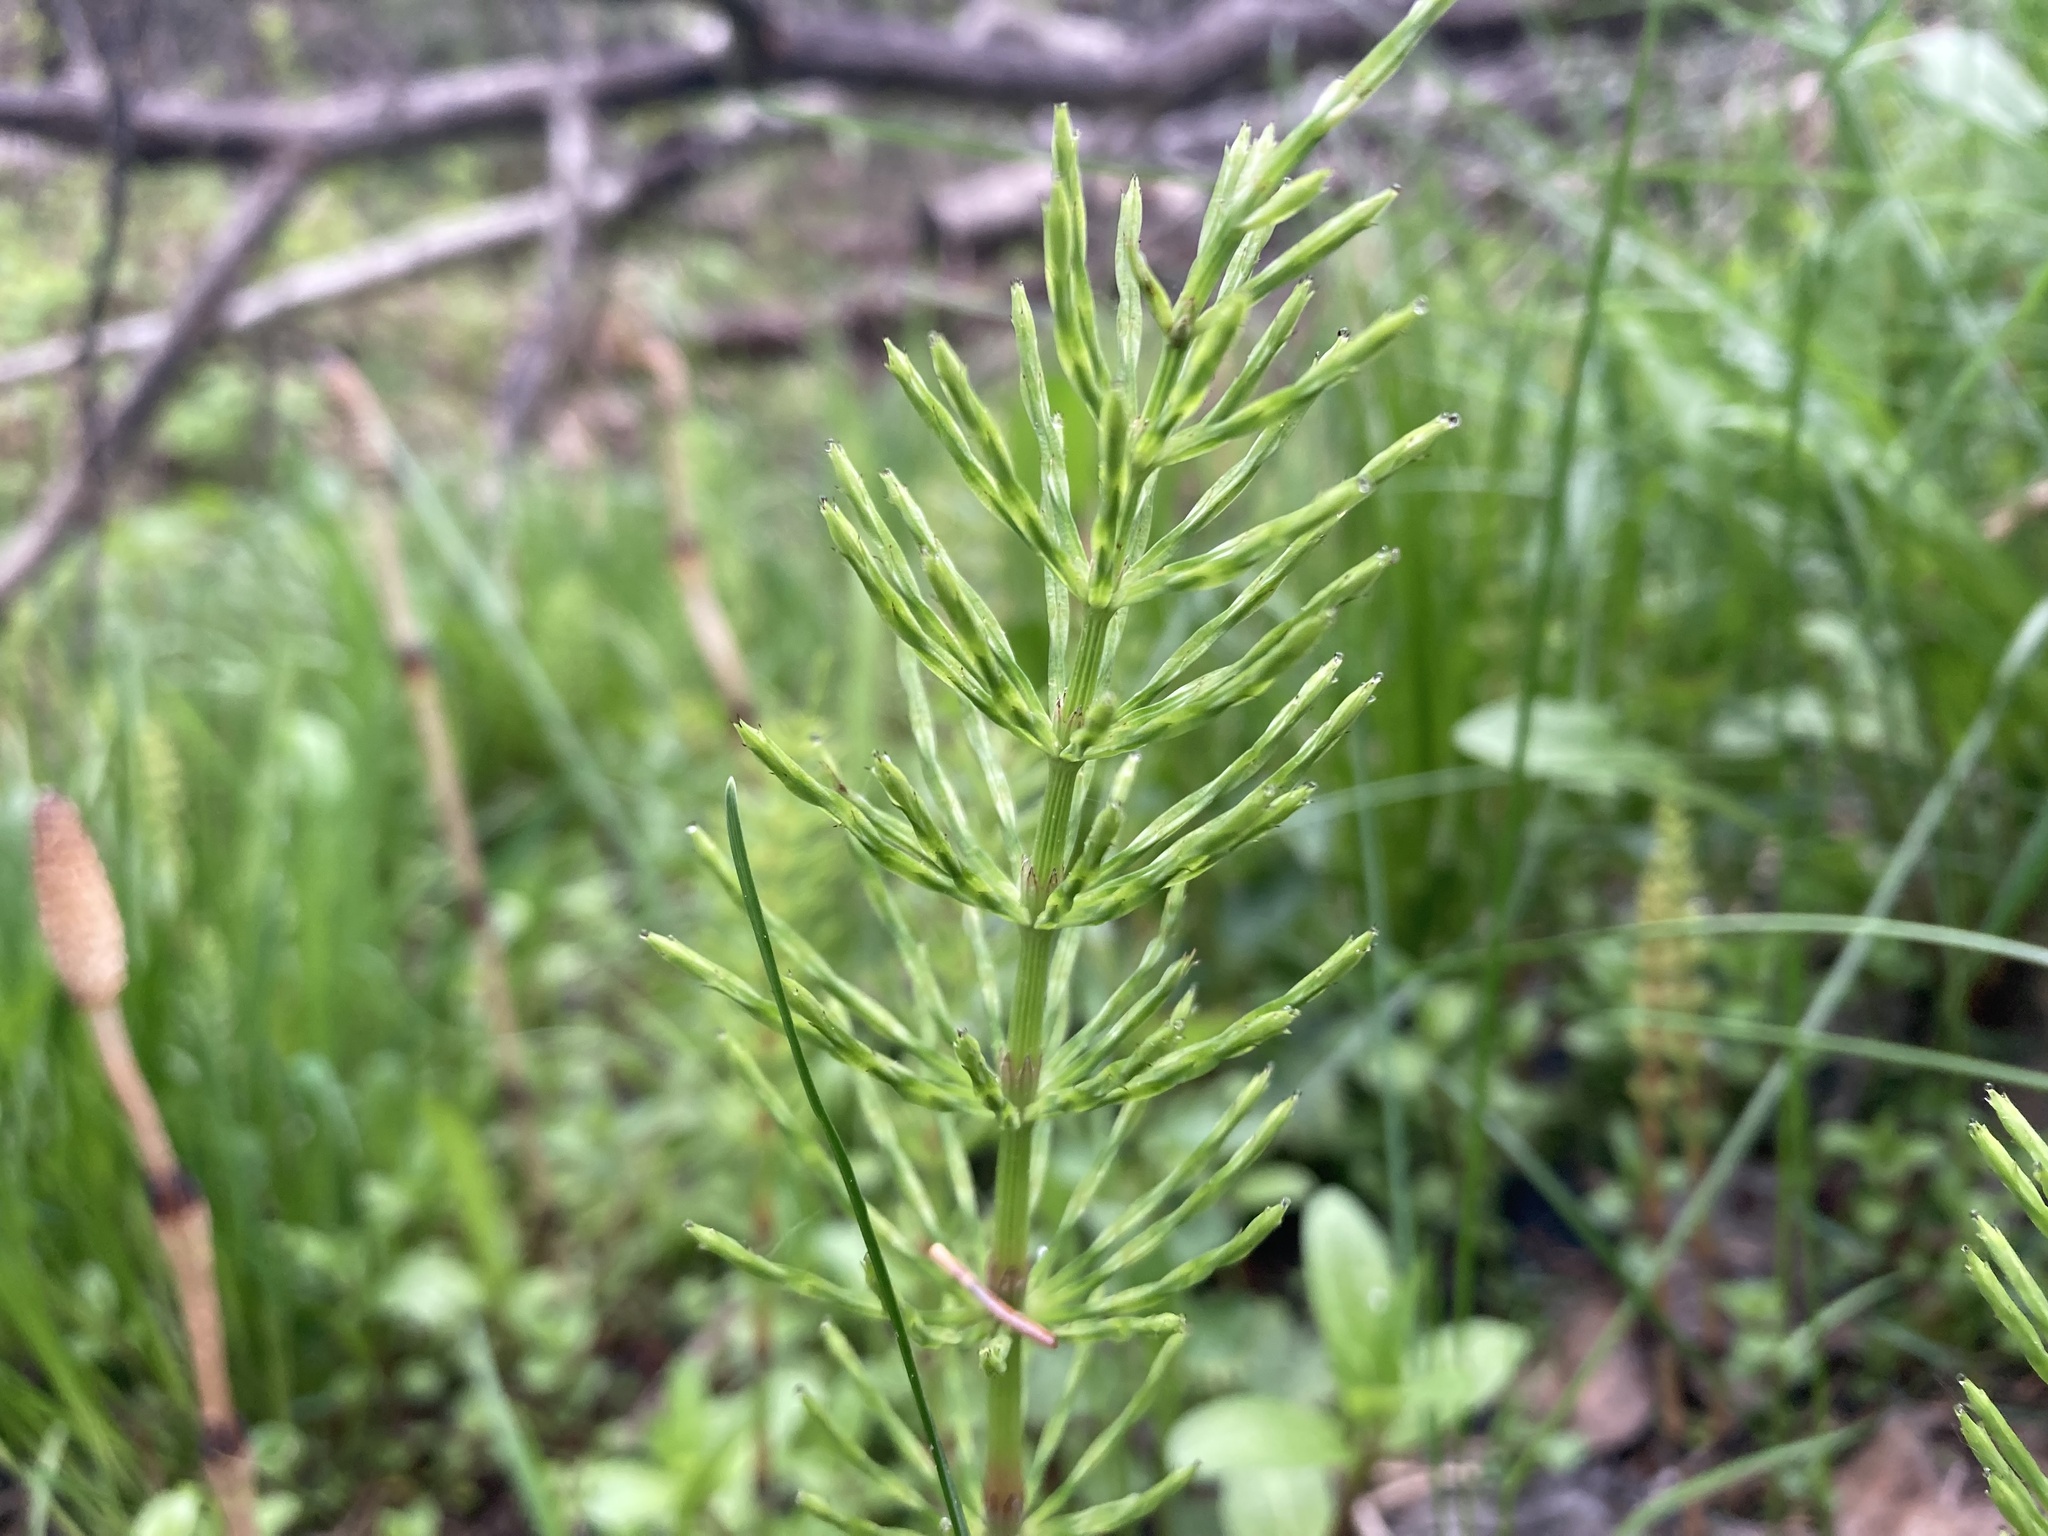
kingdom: Plantae
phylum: Tracheophyta
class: Polypodiopsida
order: Equisetales
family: Equisetaceae
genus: Equisetum
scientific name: Equisetum arvense
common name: Field horsetail
